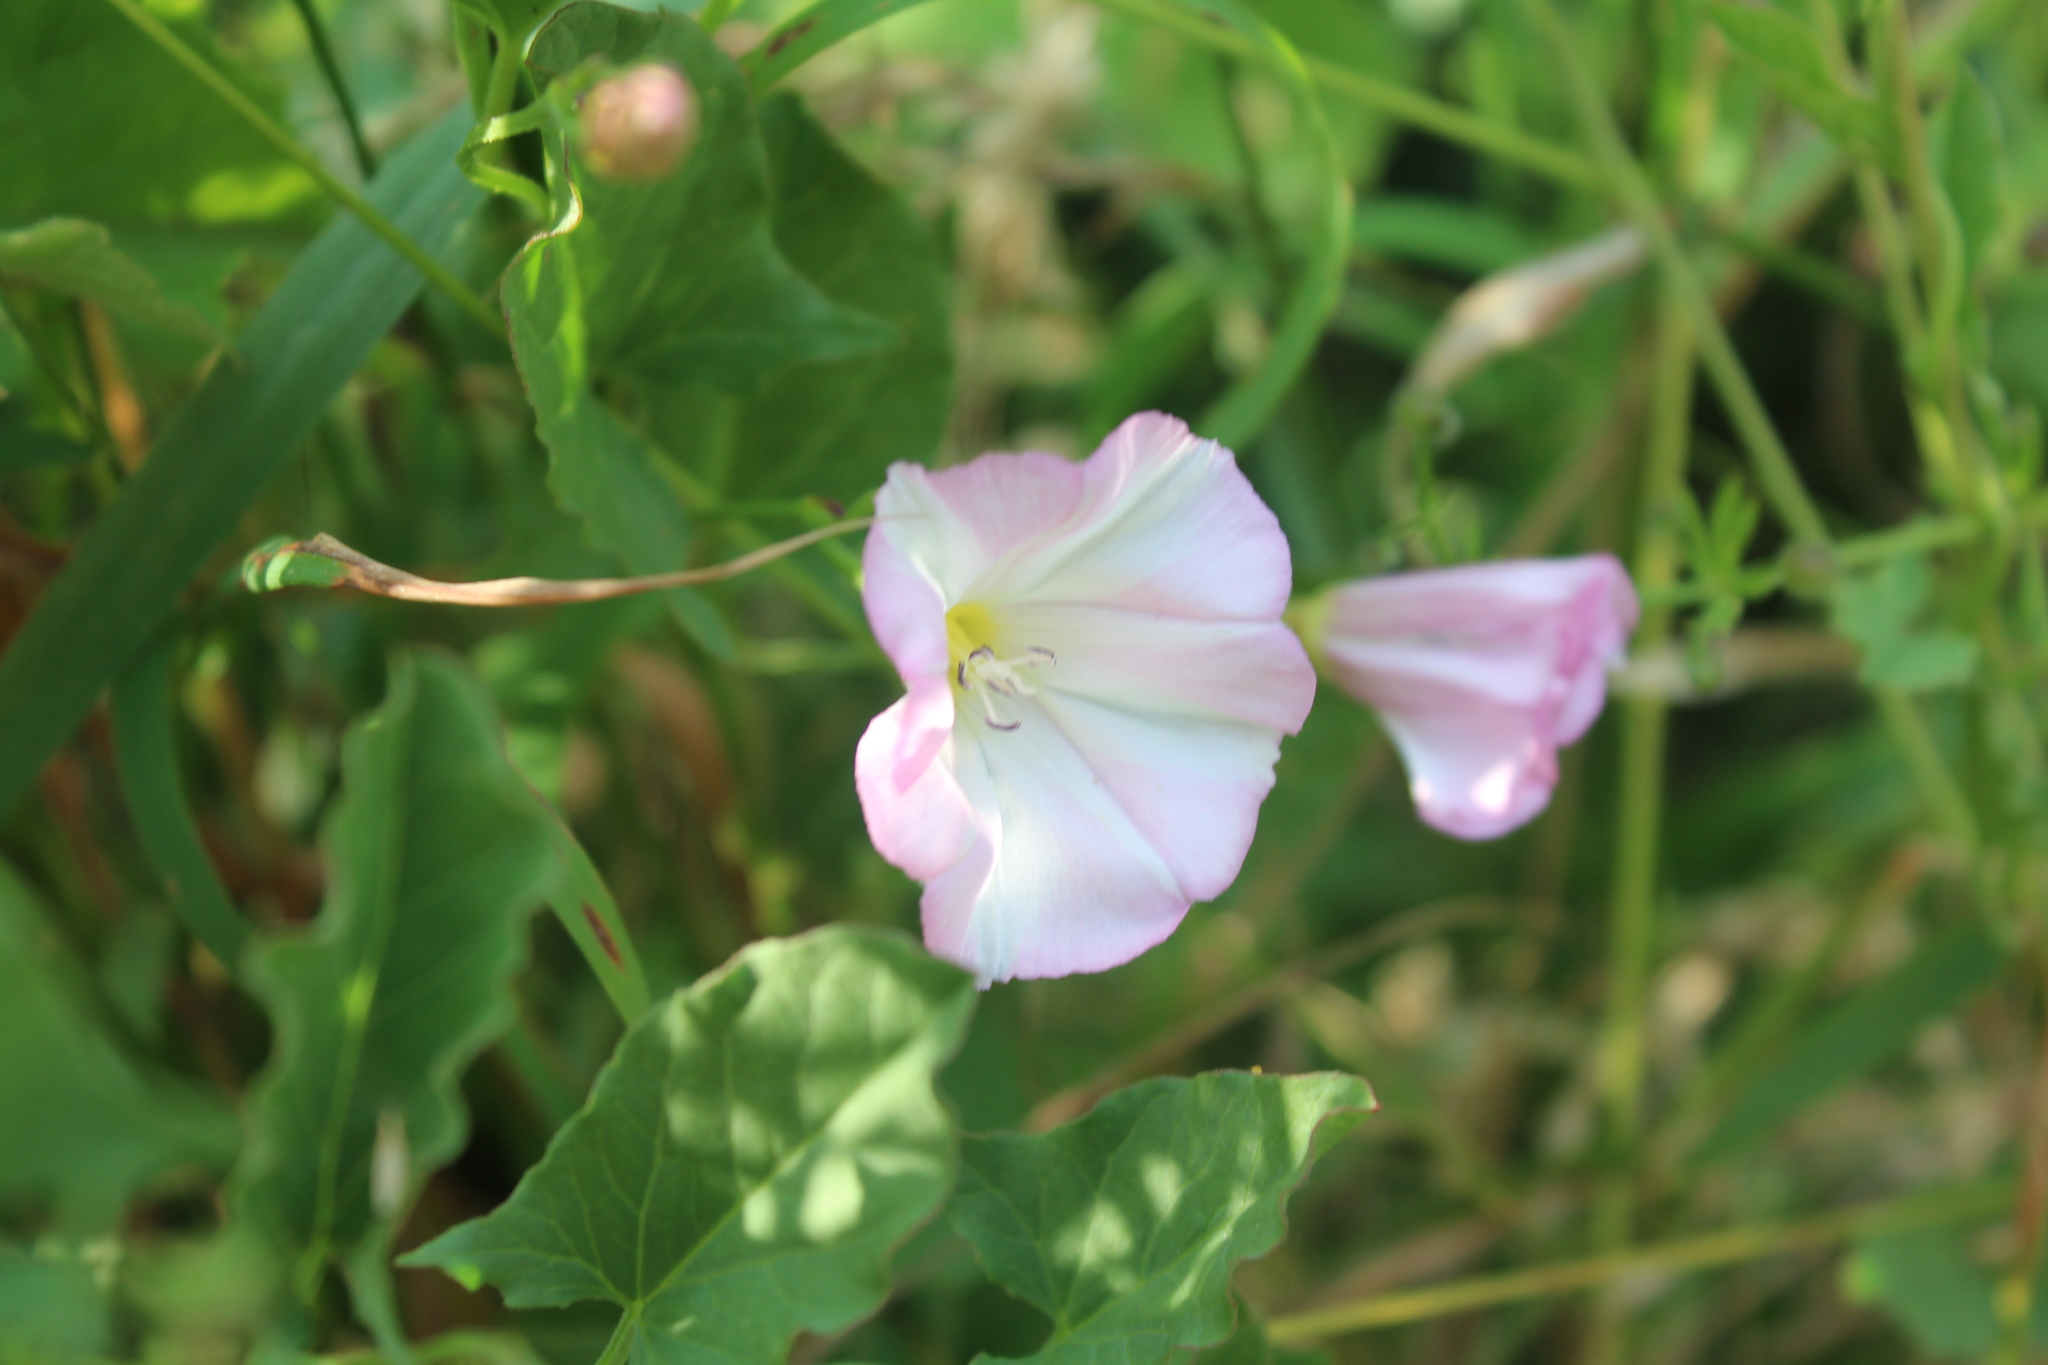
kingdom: Plantae
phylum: Tracheophyta
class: Magnoliopsida
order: Solanales
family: Convolvulaceae
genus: Convolvulus
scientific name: Convolvulus arvensis
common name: Field bindweed
